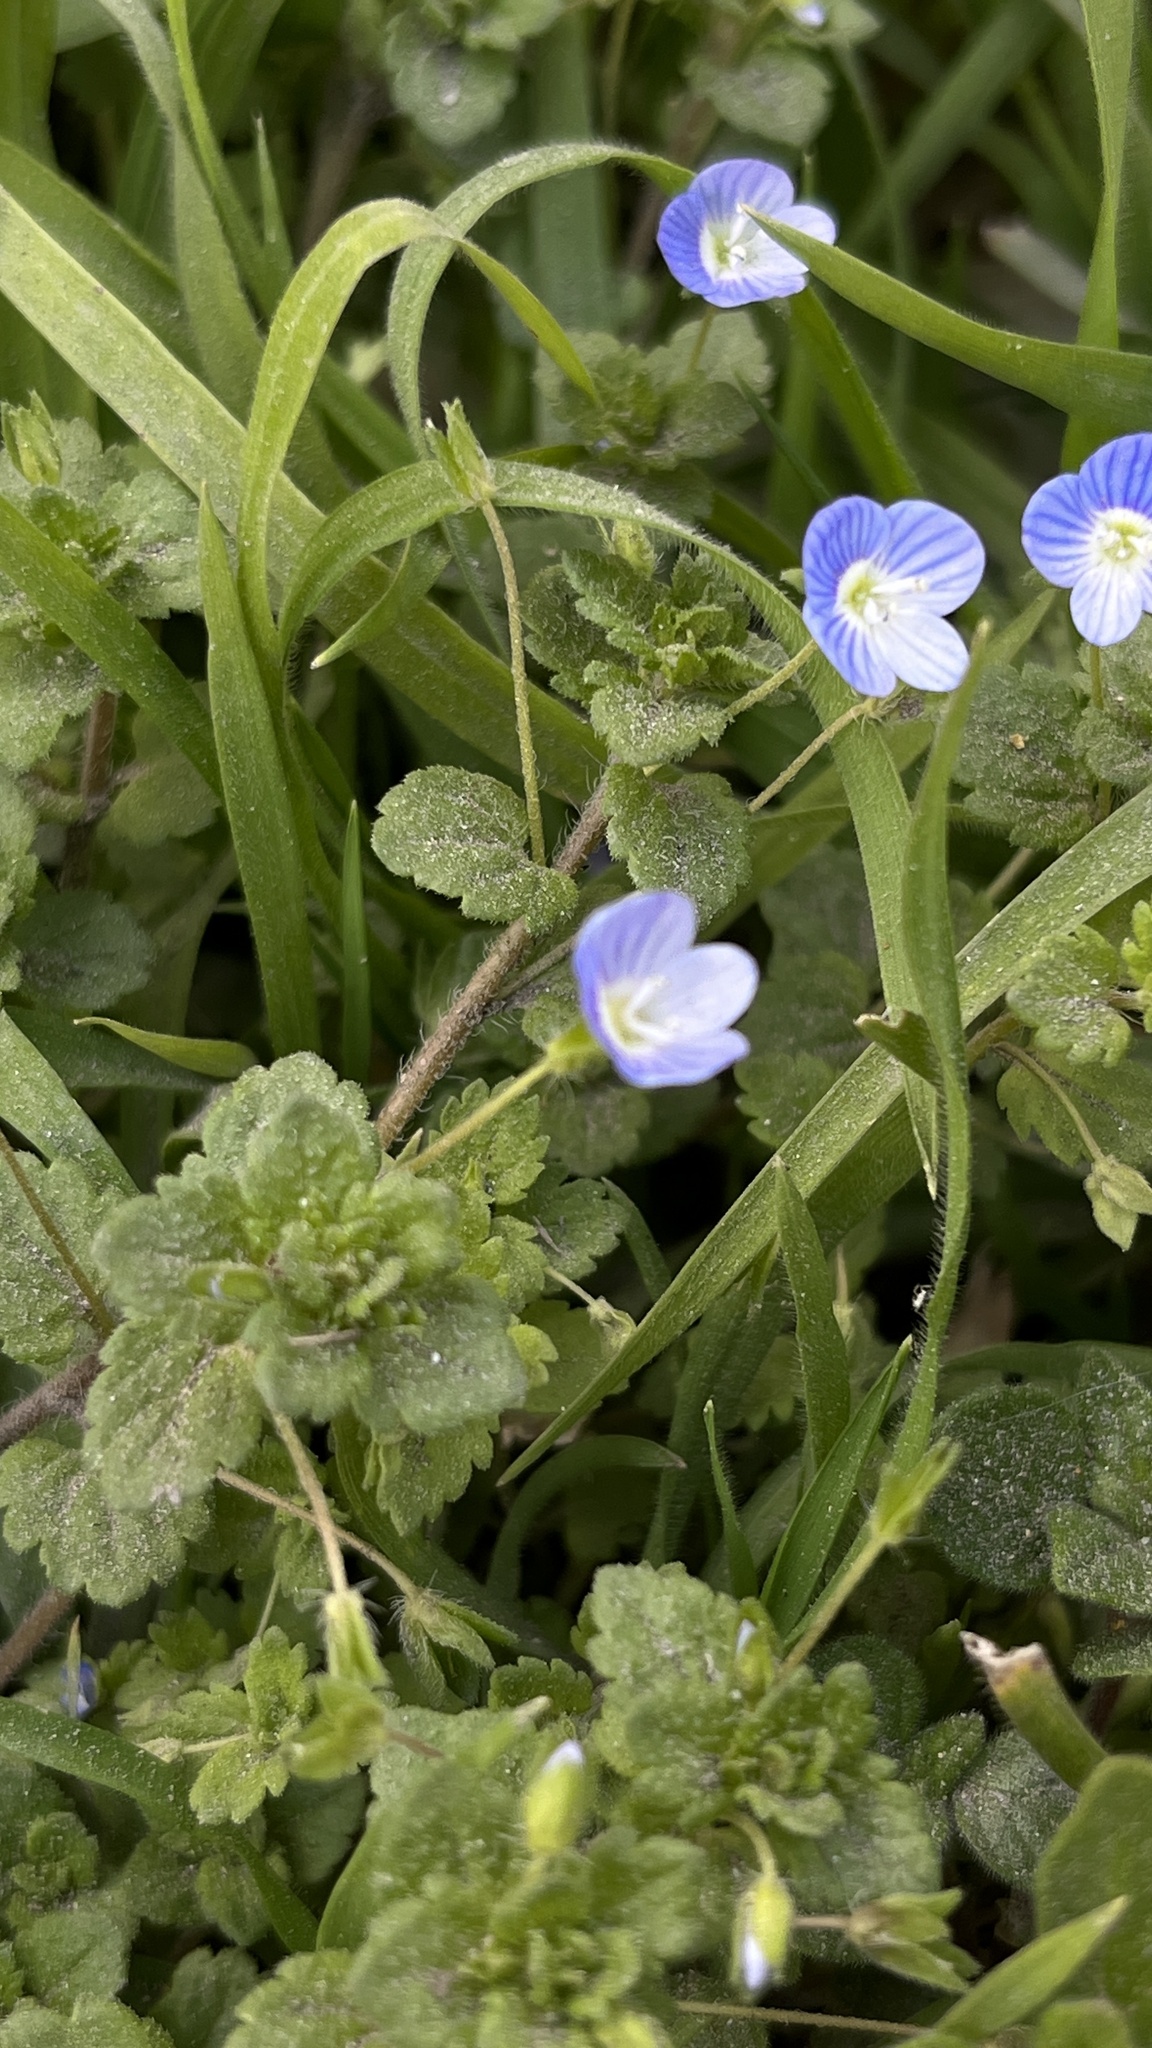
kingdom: Plantae
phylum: Tracheophyta
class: Magnoliopsida
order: Lamiales
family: Plantaginaceae
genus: Veronica
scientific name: Veronica persica
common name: Common field-speedwell
